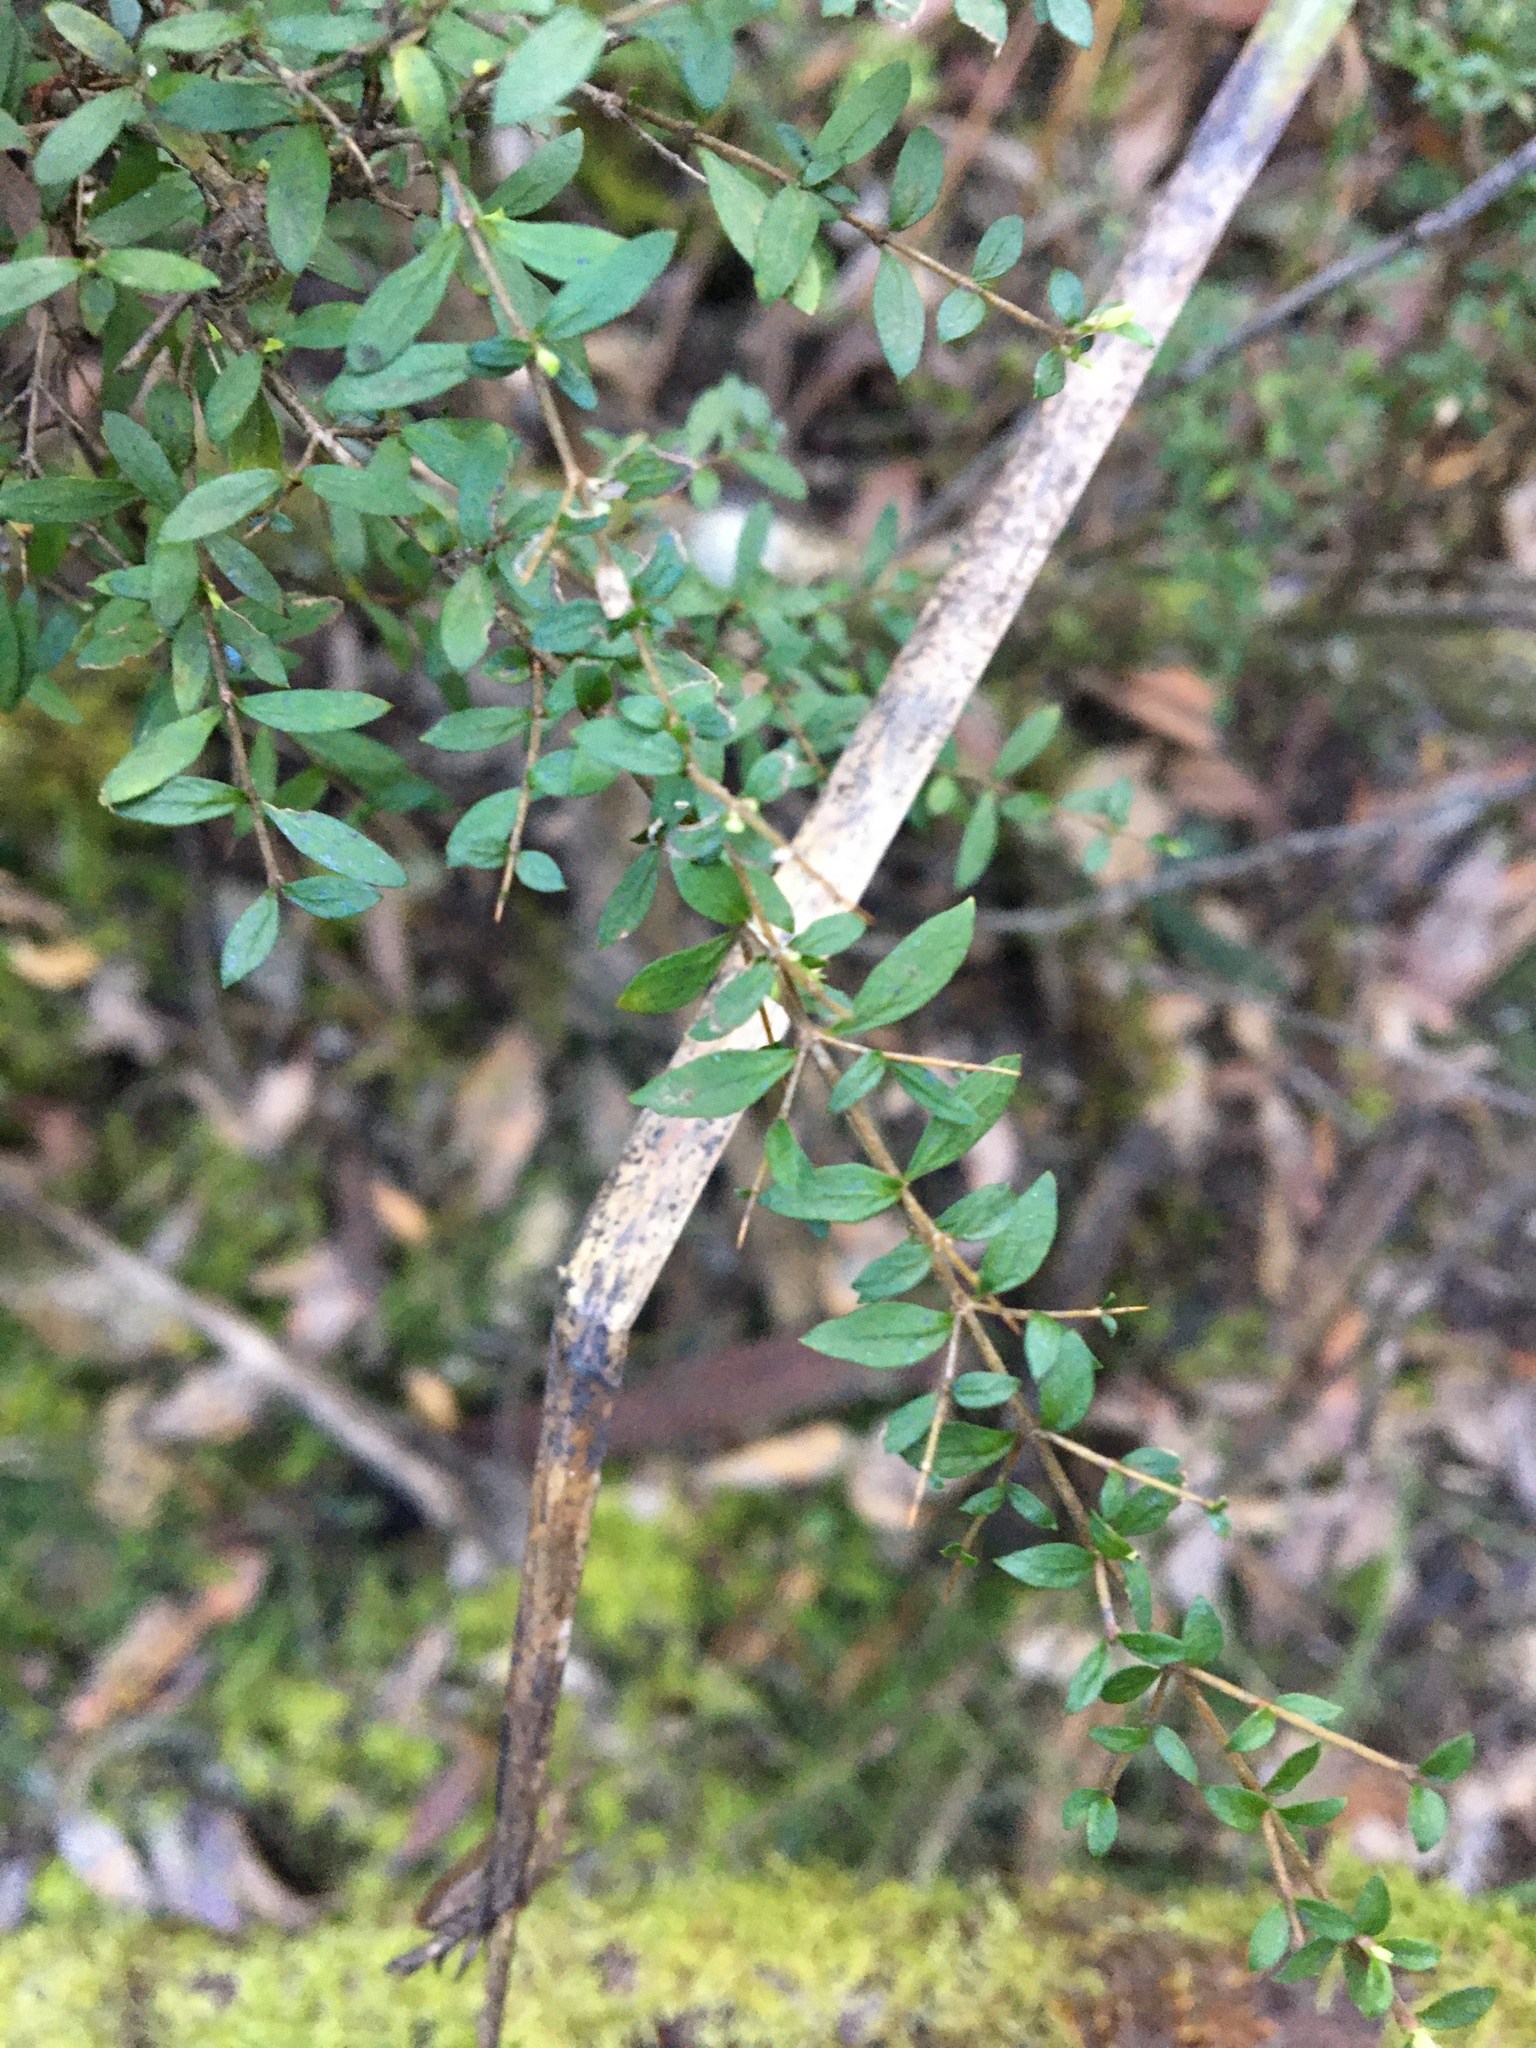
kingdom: Plantae
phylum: Tracheophyta
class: Magnoliopsida
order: Gentianales
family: Rubiaceae
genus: Coprosma
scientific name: Coprosma quadrifida
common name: Prickly currantbush
